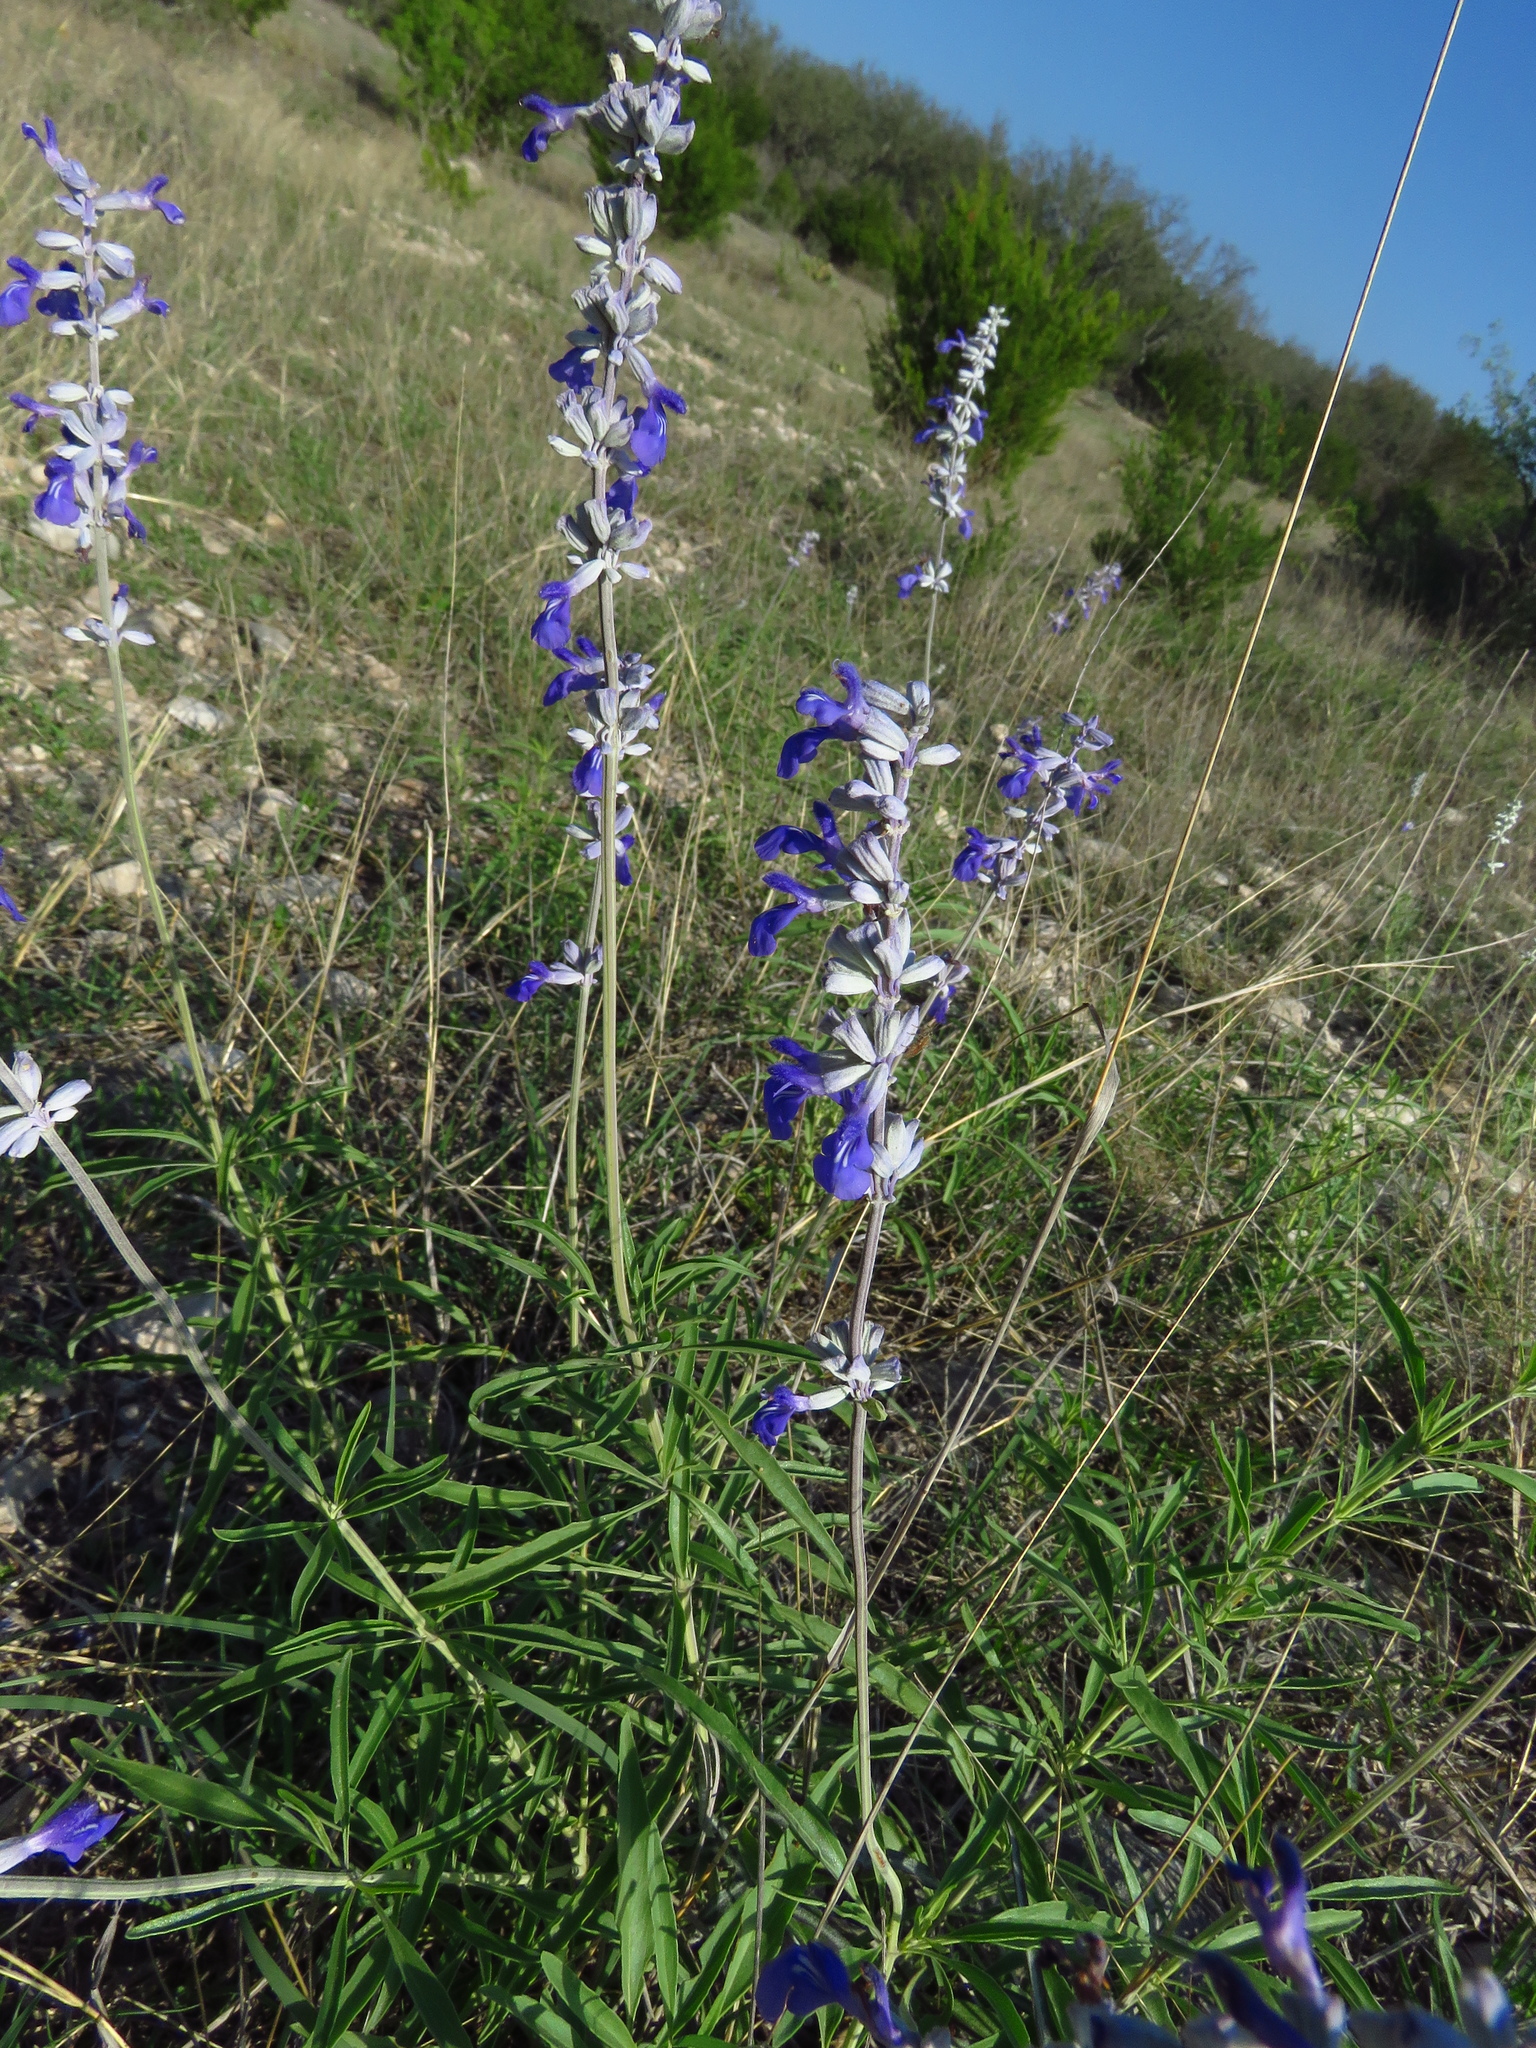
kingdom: Plantae
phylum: Tracheophyta
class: Magnoliopsida
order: Lamiales
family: Lamiaceae
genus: Salvia
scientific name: Salvia farinacea
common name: Mealy sage
